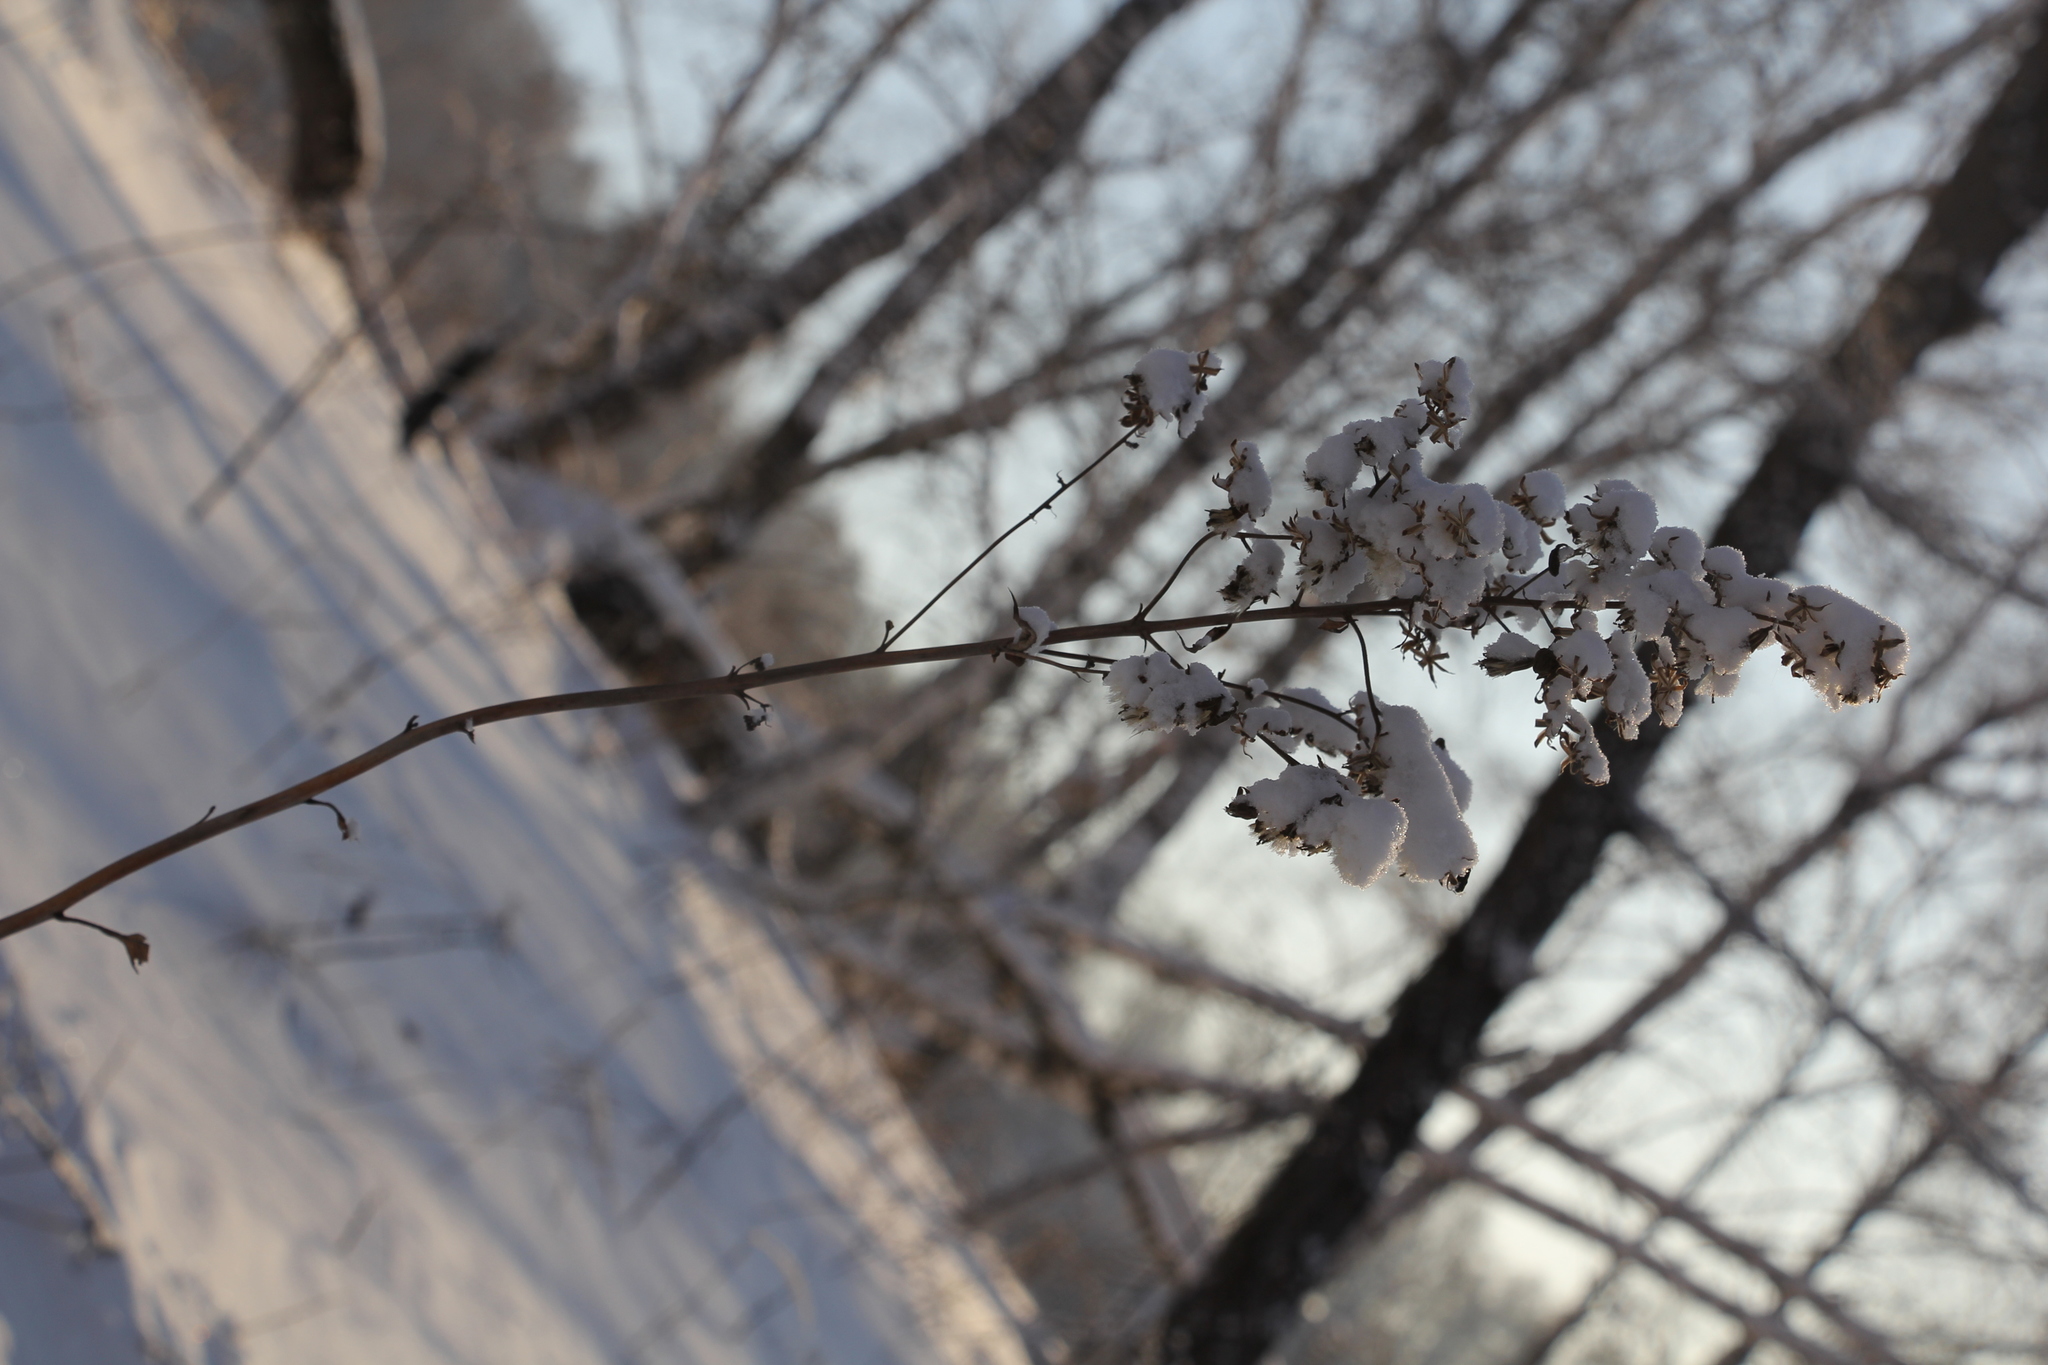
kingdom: Plantae
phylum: Tracheophyta
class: Magnoliopsida
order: Asterales
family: Asteraceae
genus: Parasenecio
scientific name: Parasenecio hastatus
